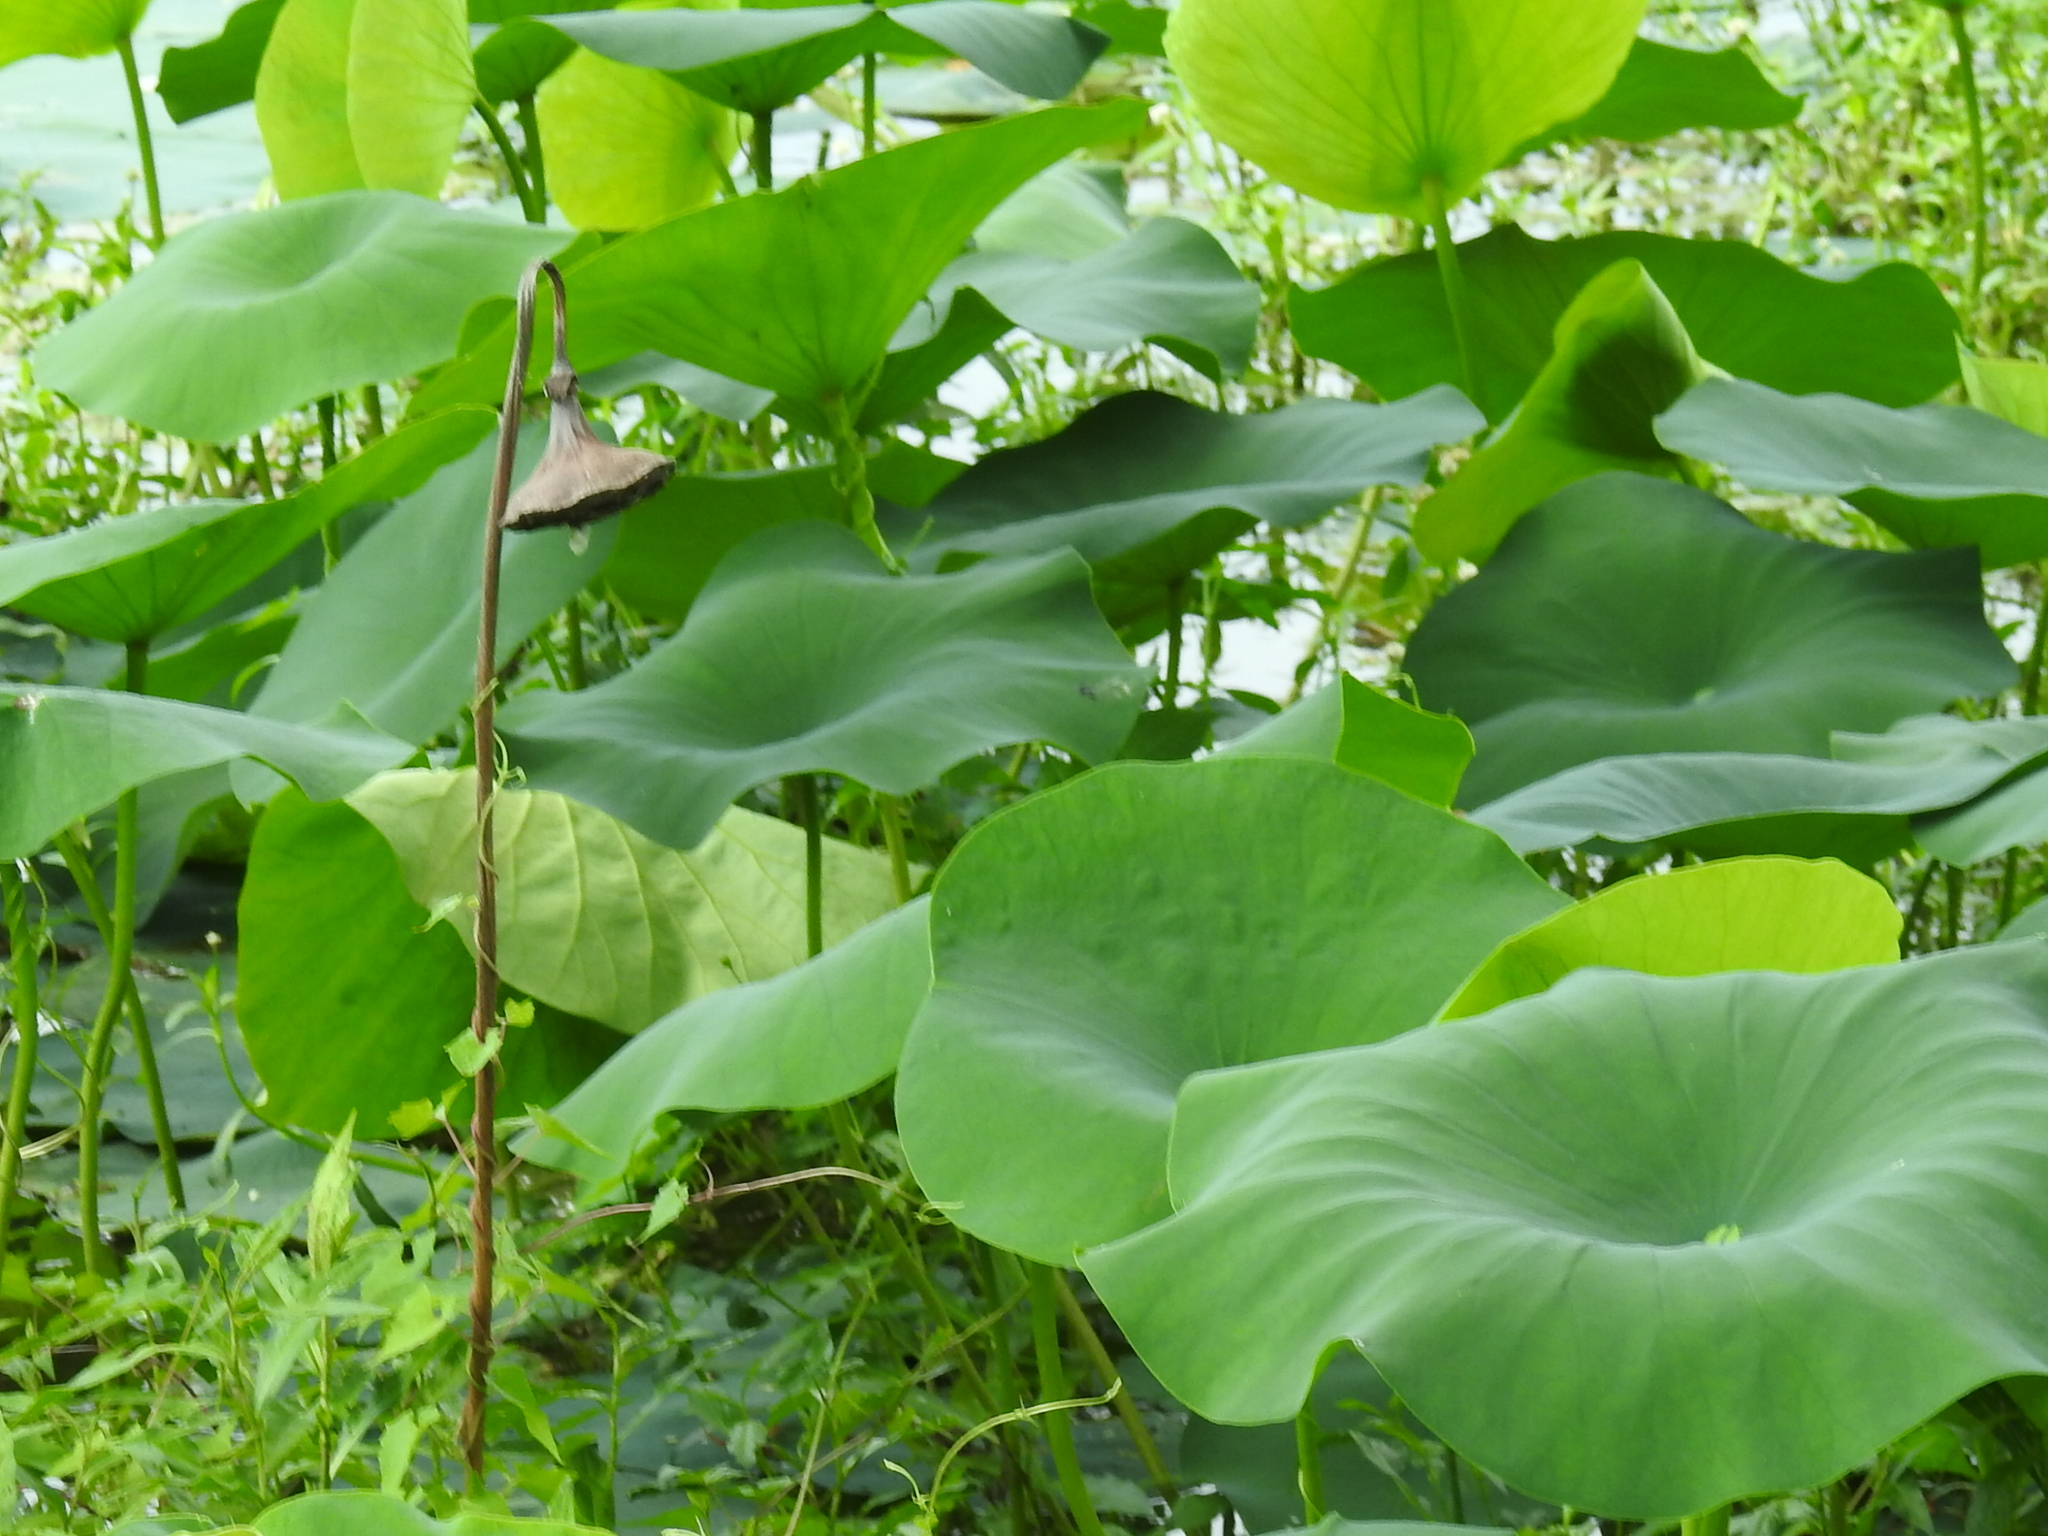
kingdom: Plantae
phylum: Tracheophyta
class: Magnoliopsida
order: Proteales
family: Nelumbonaceae
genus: Nelumbo
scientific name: Nelumbo lutea
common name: American lotus
